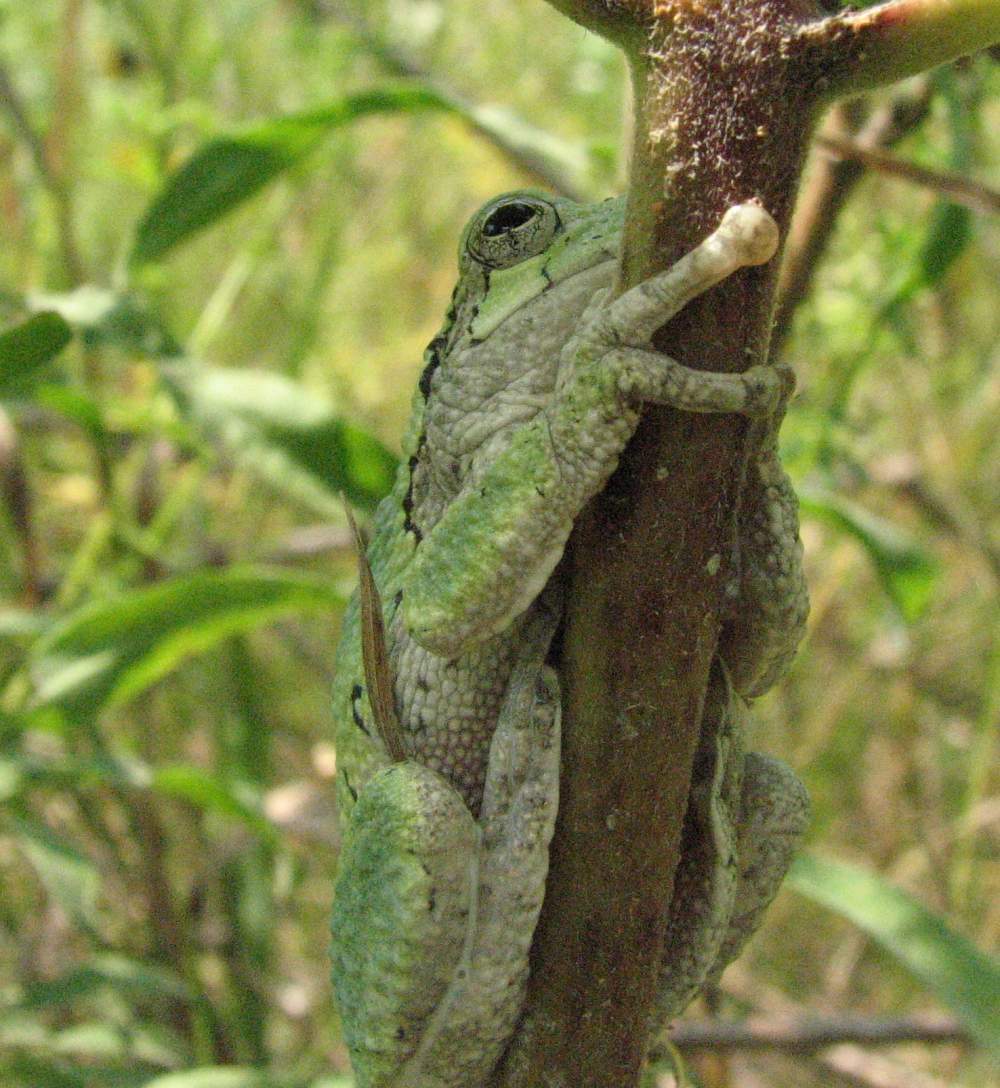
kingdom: Animalia
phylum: Chordata
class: Amphibia
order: Anura
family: Hylidae
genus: Dryophytes
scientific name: Dryophytes versicolor
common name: Gray treefrog
